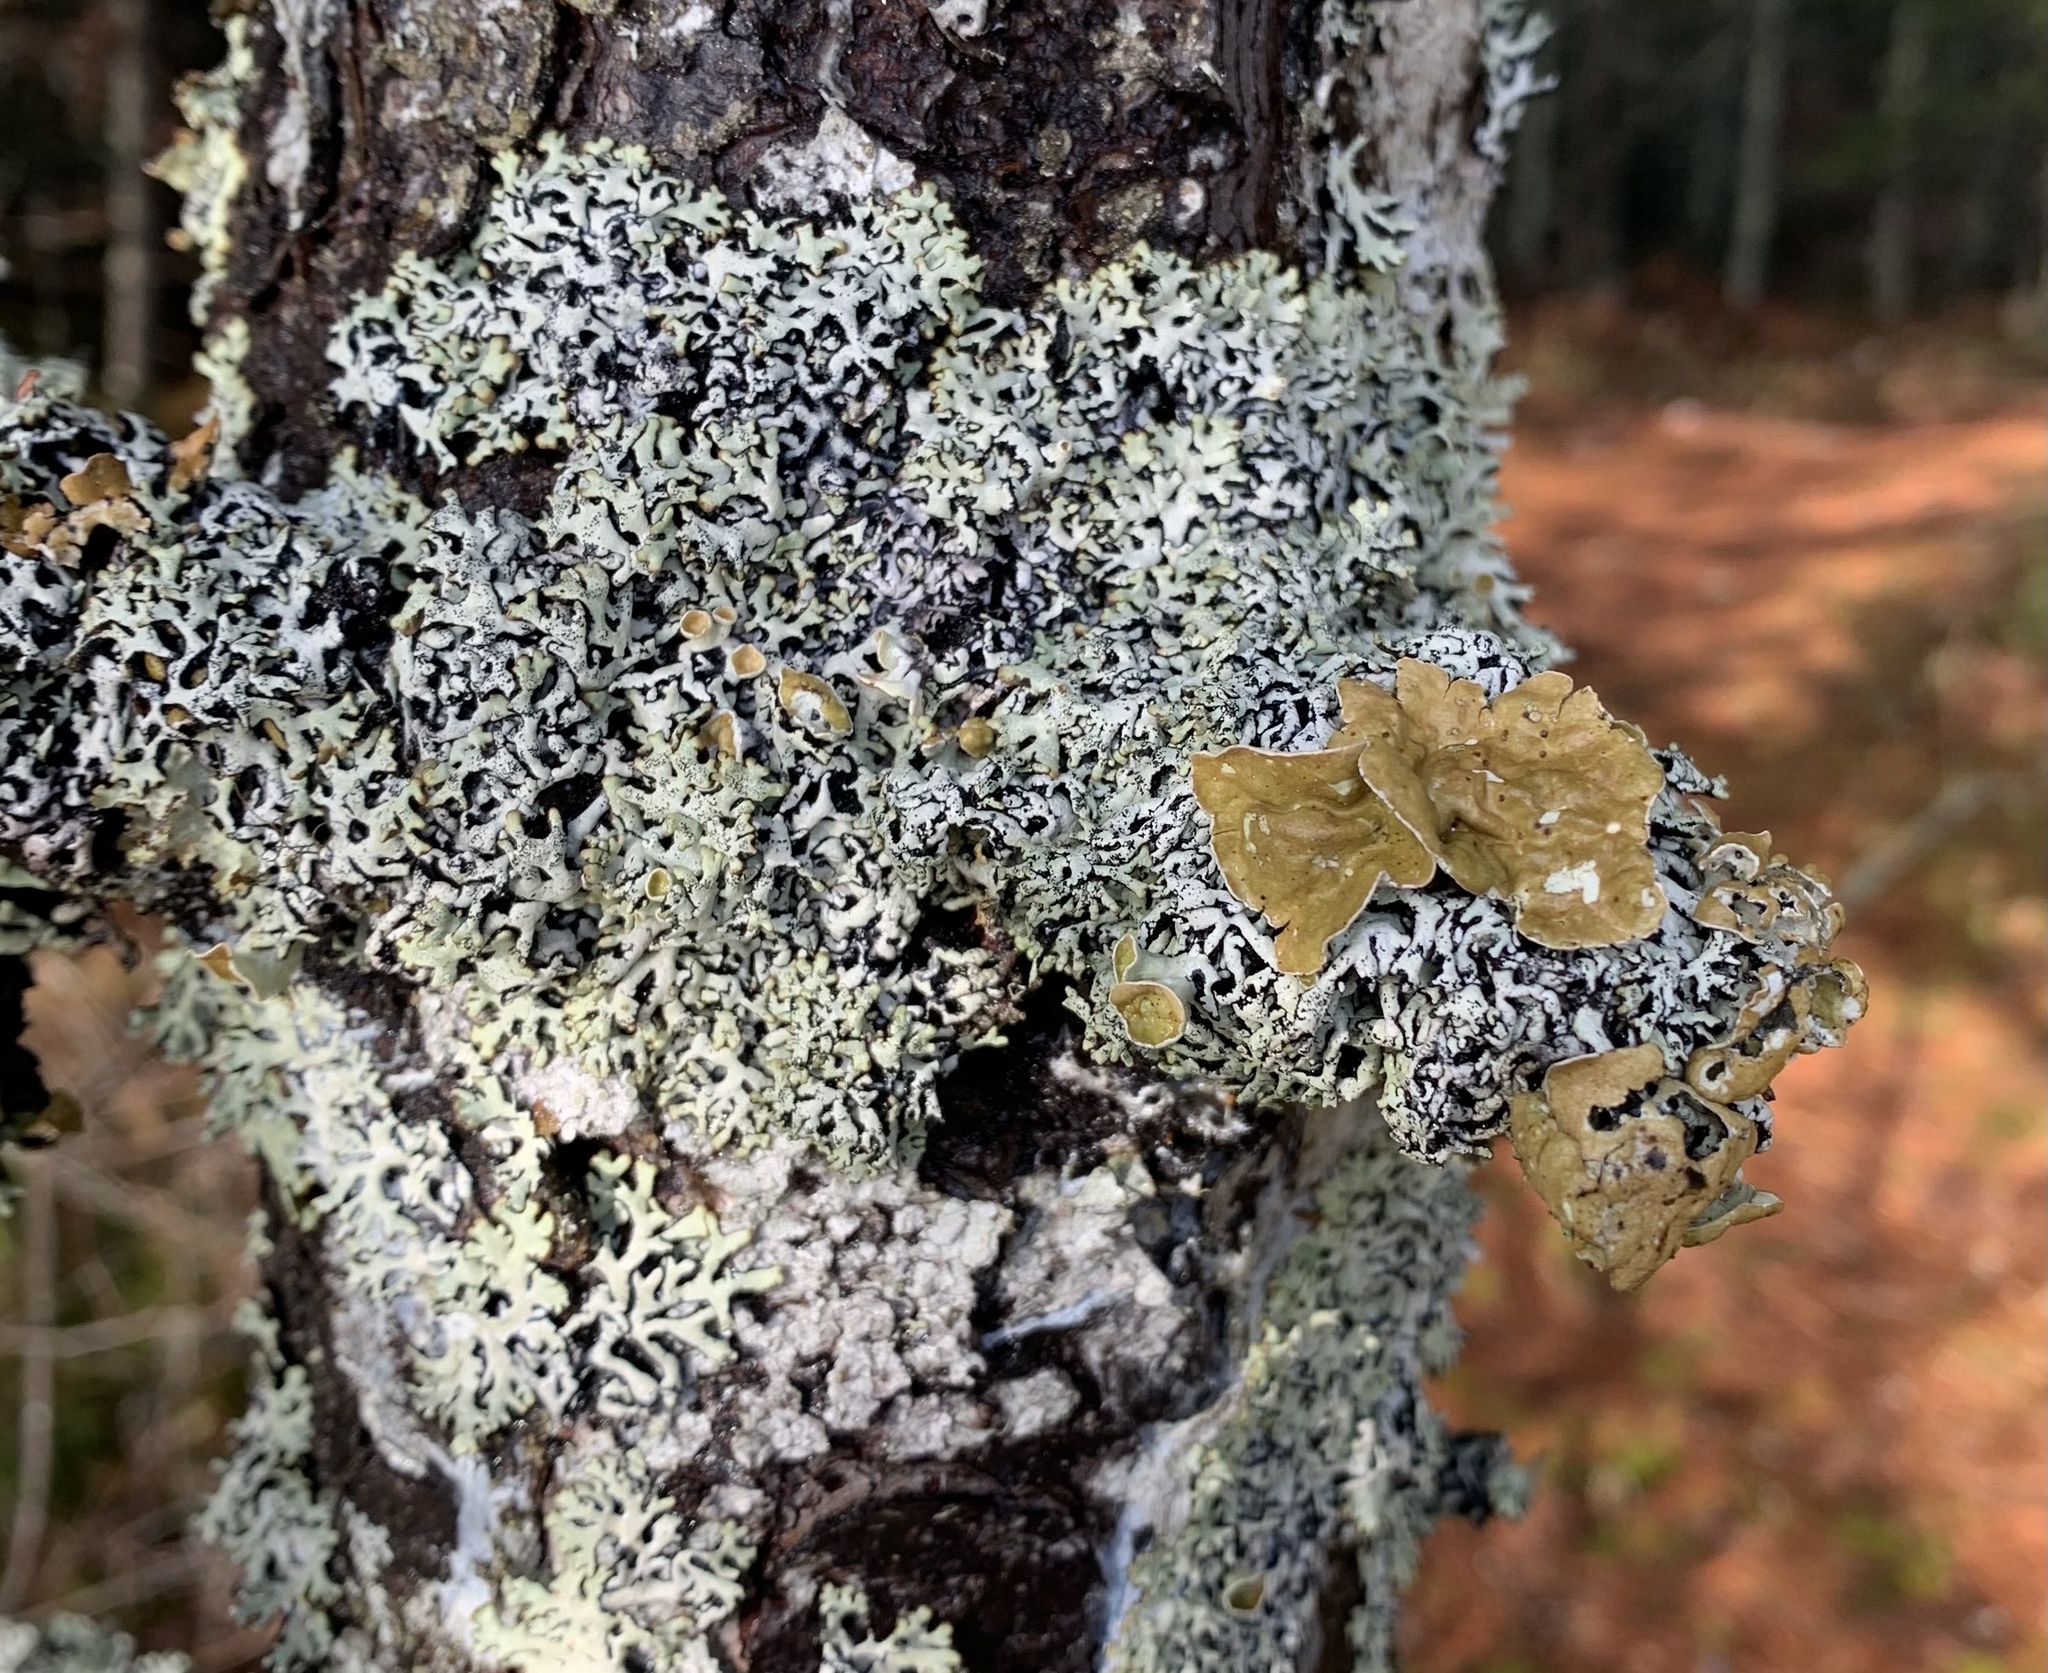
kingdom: Fungi
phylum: Ascomycota
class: Lecanoromycetes
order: Lecanorales
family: Parmeliaceae
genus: Hypogymnia
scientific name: Hypogymnia krogiae
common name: Freckled tube lichen
